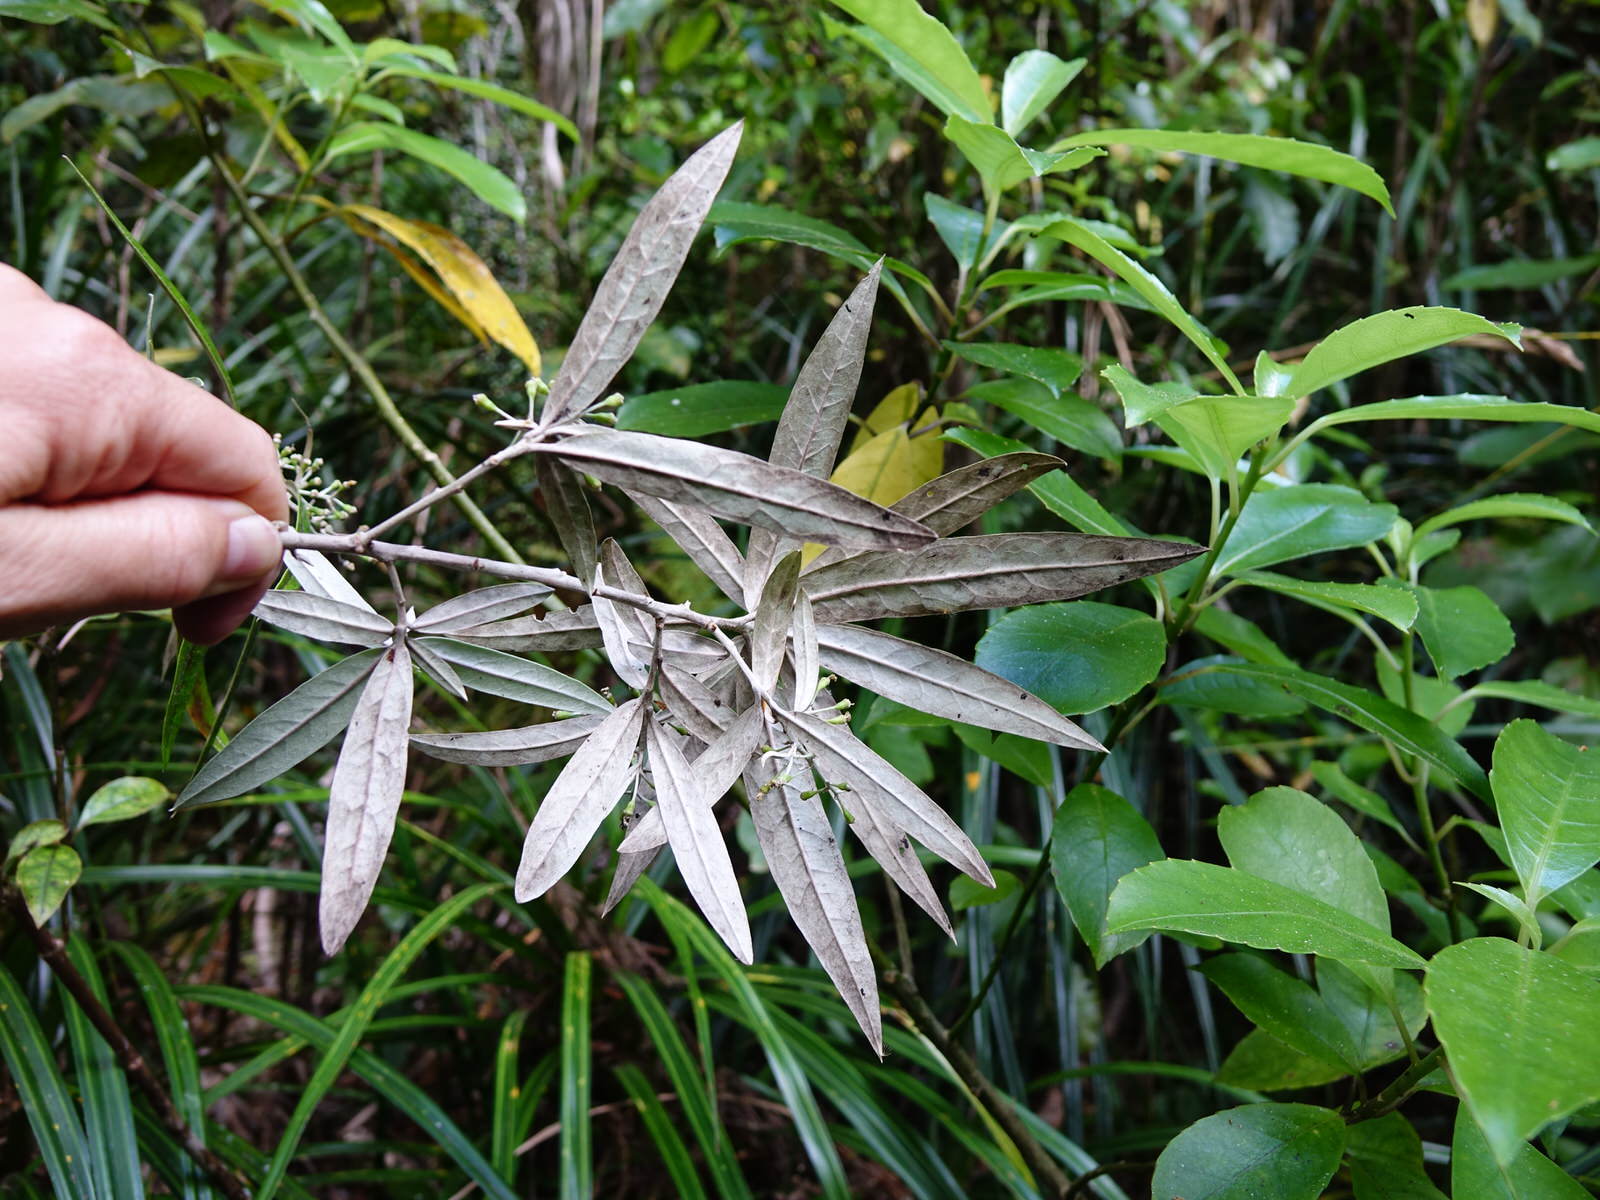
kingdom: Plantae
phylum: Tracheophyta
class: Magnoliopsida
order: Asterales
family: Argophyllaceae
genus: Corokia
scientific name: Corokia buddleioides
